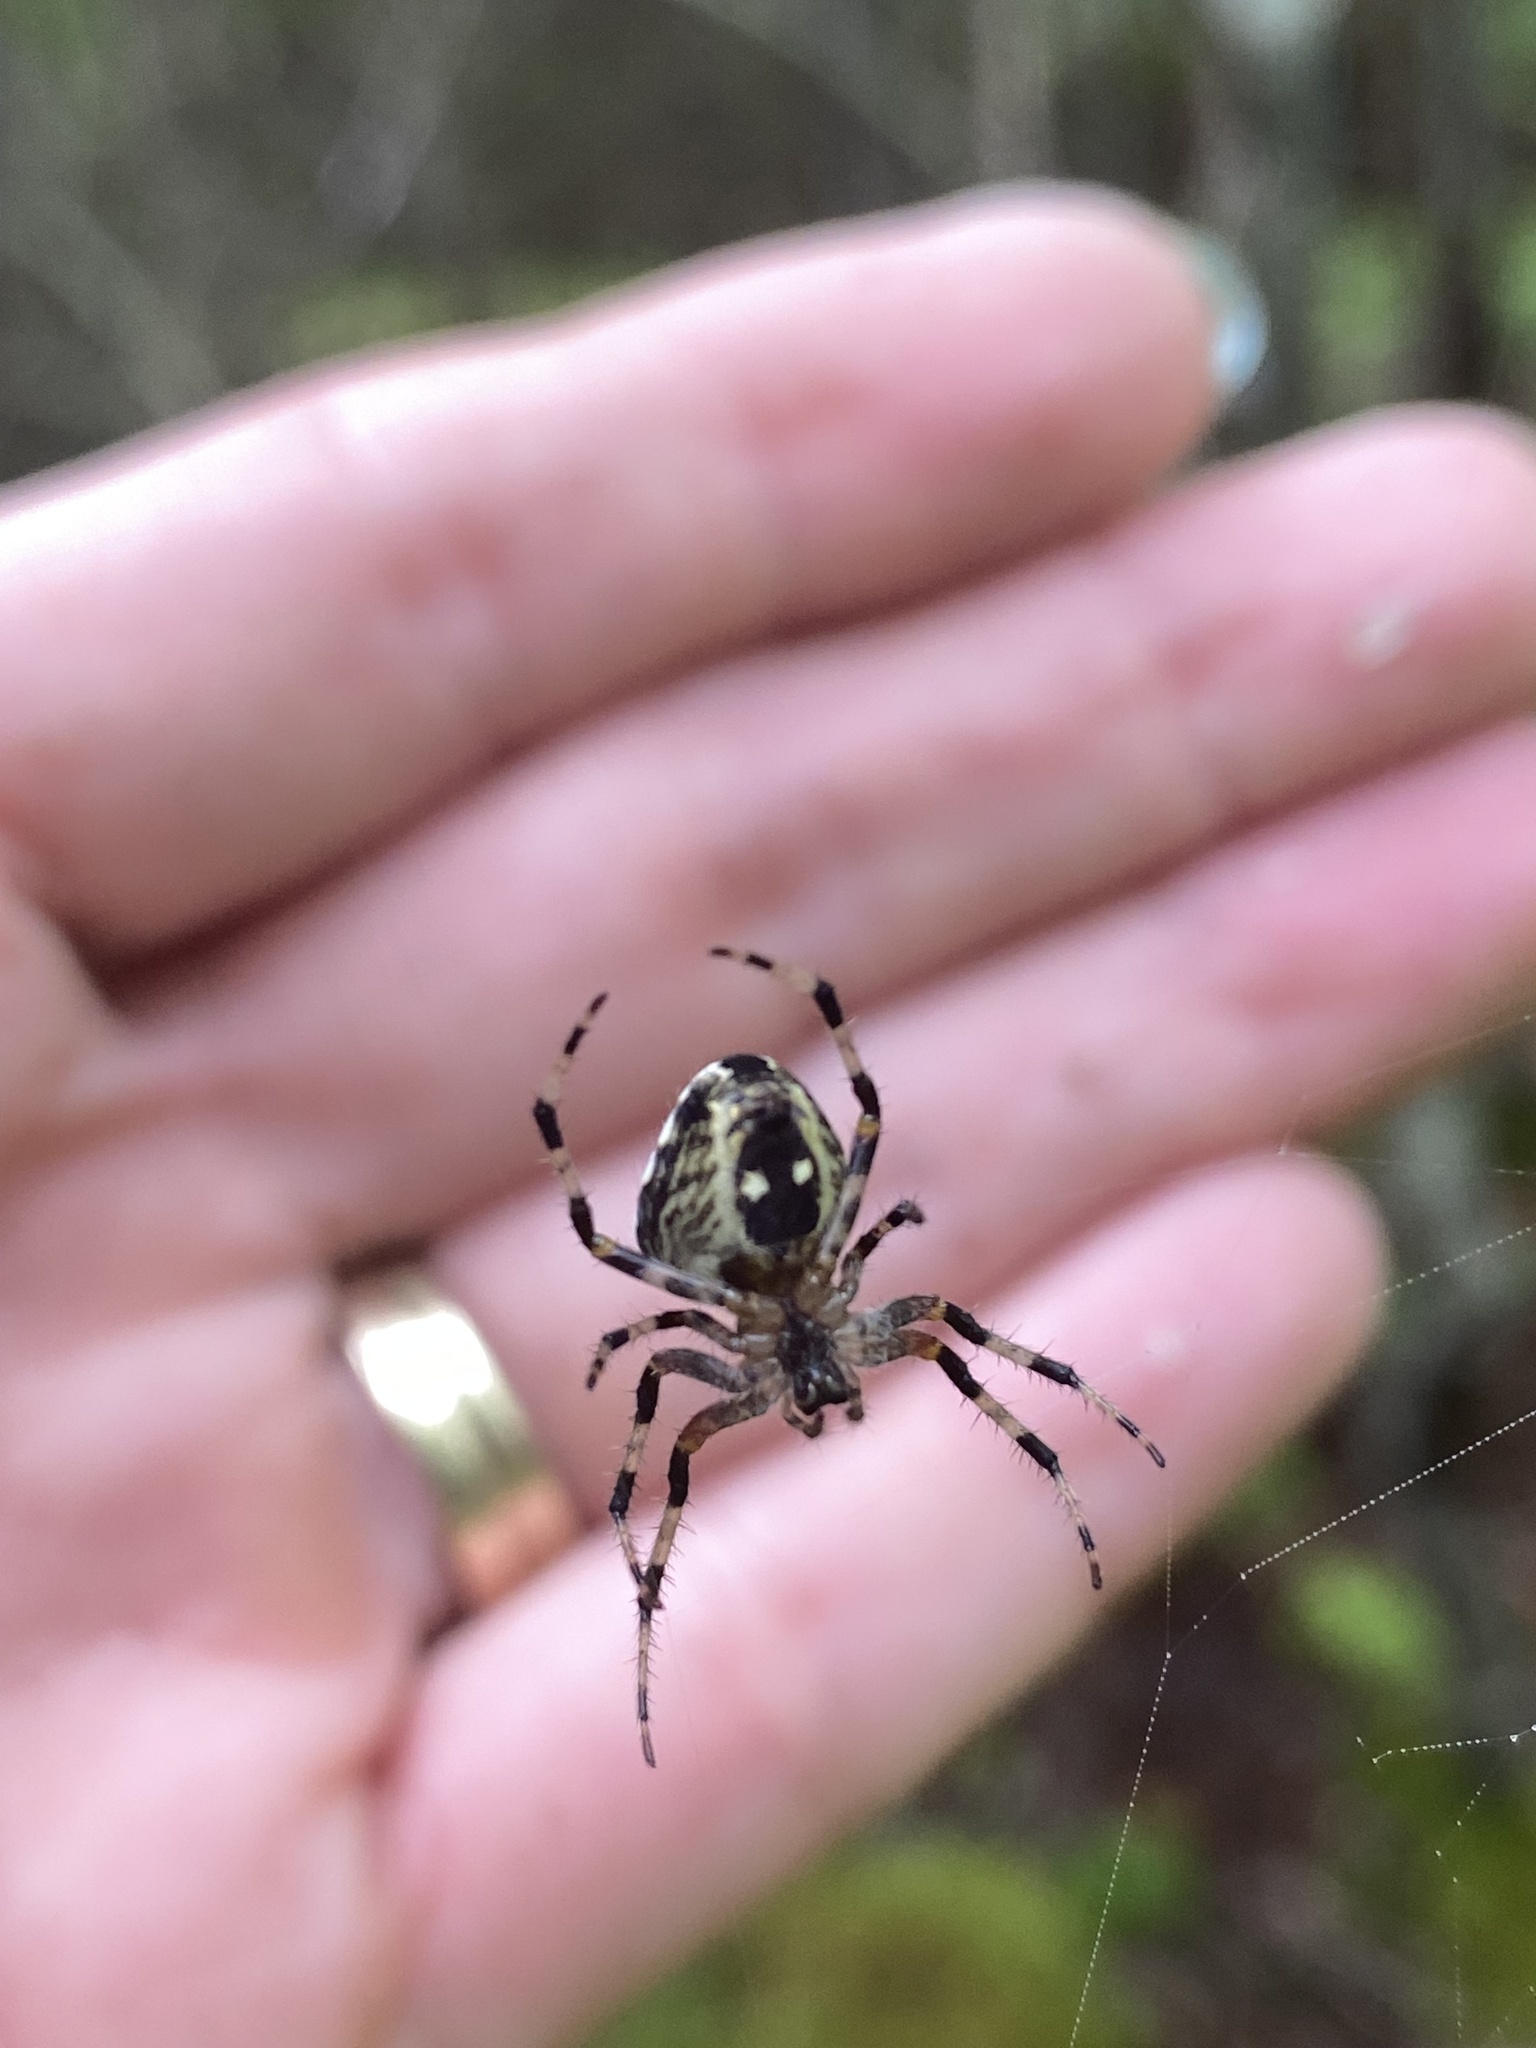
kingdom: Animalia
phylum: Arthropoda
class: Arachnida
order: Araneae
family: Araneidae
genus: Araneus
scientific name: Araneus nordmanni
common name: Nordmann's orbweaver
